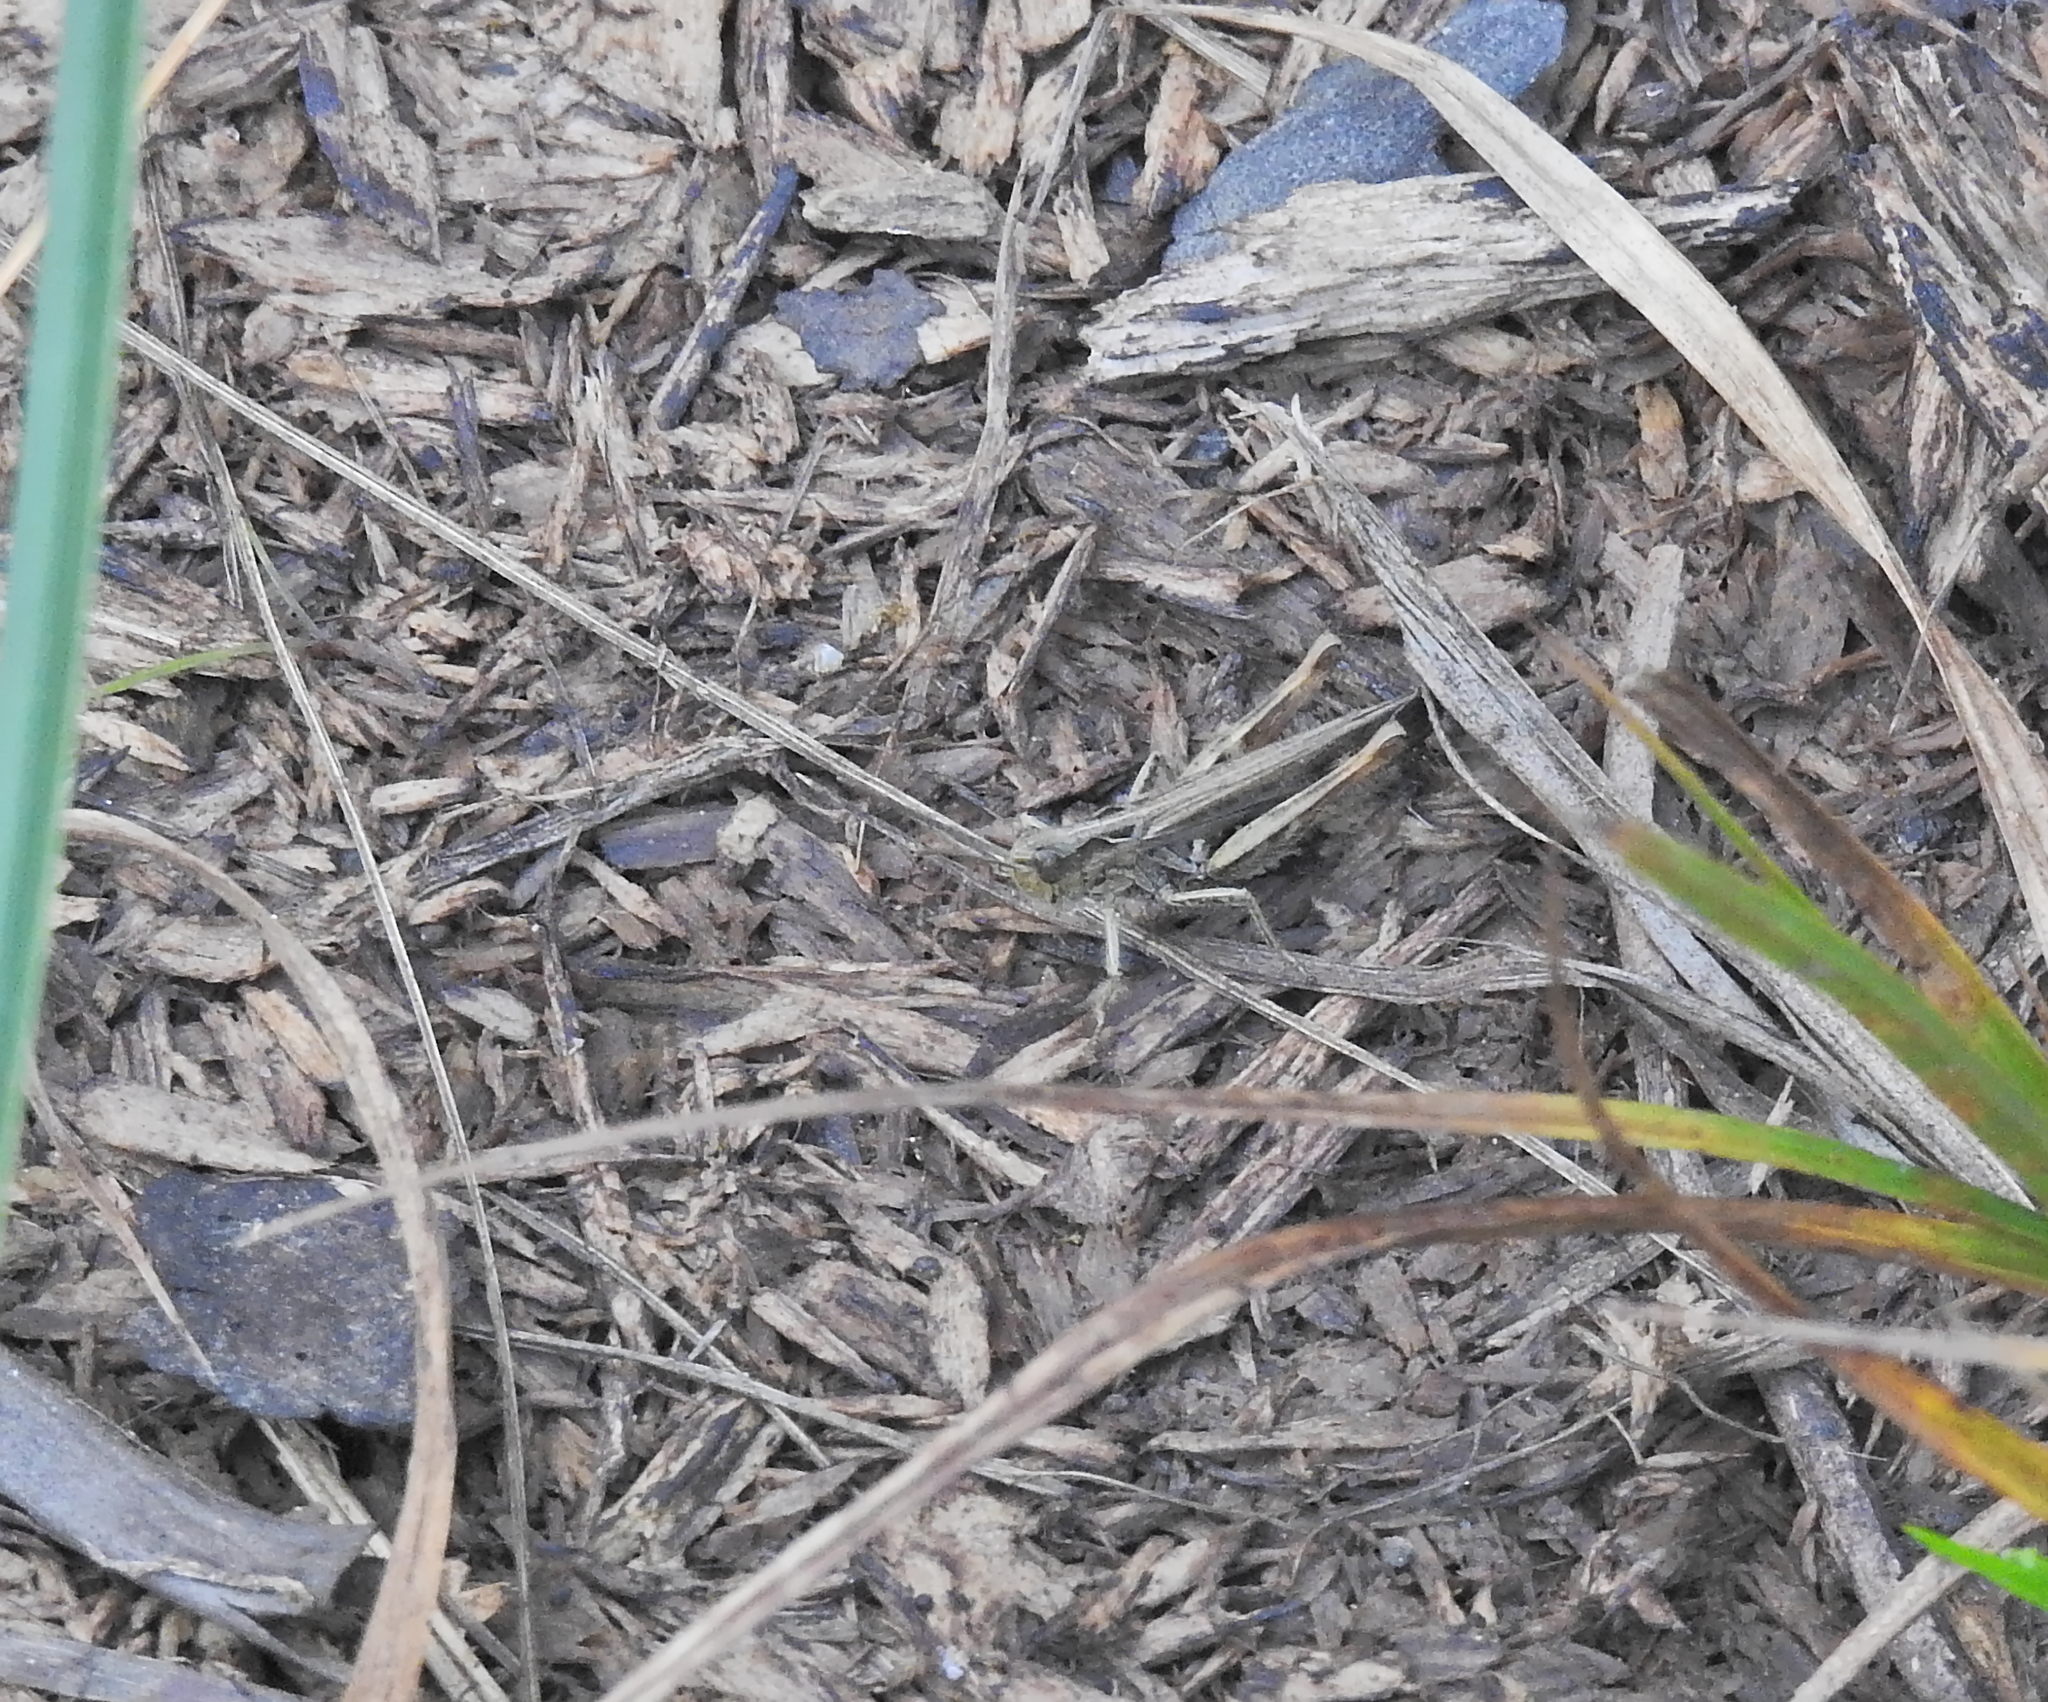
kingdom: Animalia
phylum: Arthropoda
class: Insecta
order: Orthoptera
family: Acrididae
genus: Glyptobothrus
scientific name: Glyptobothrus
